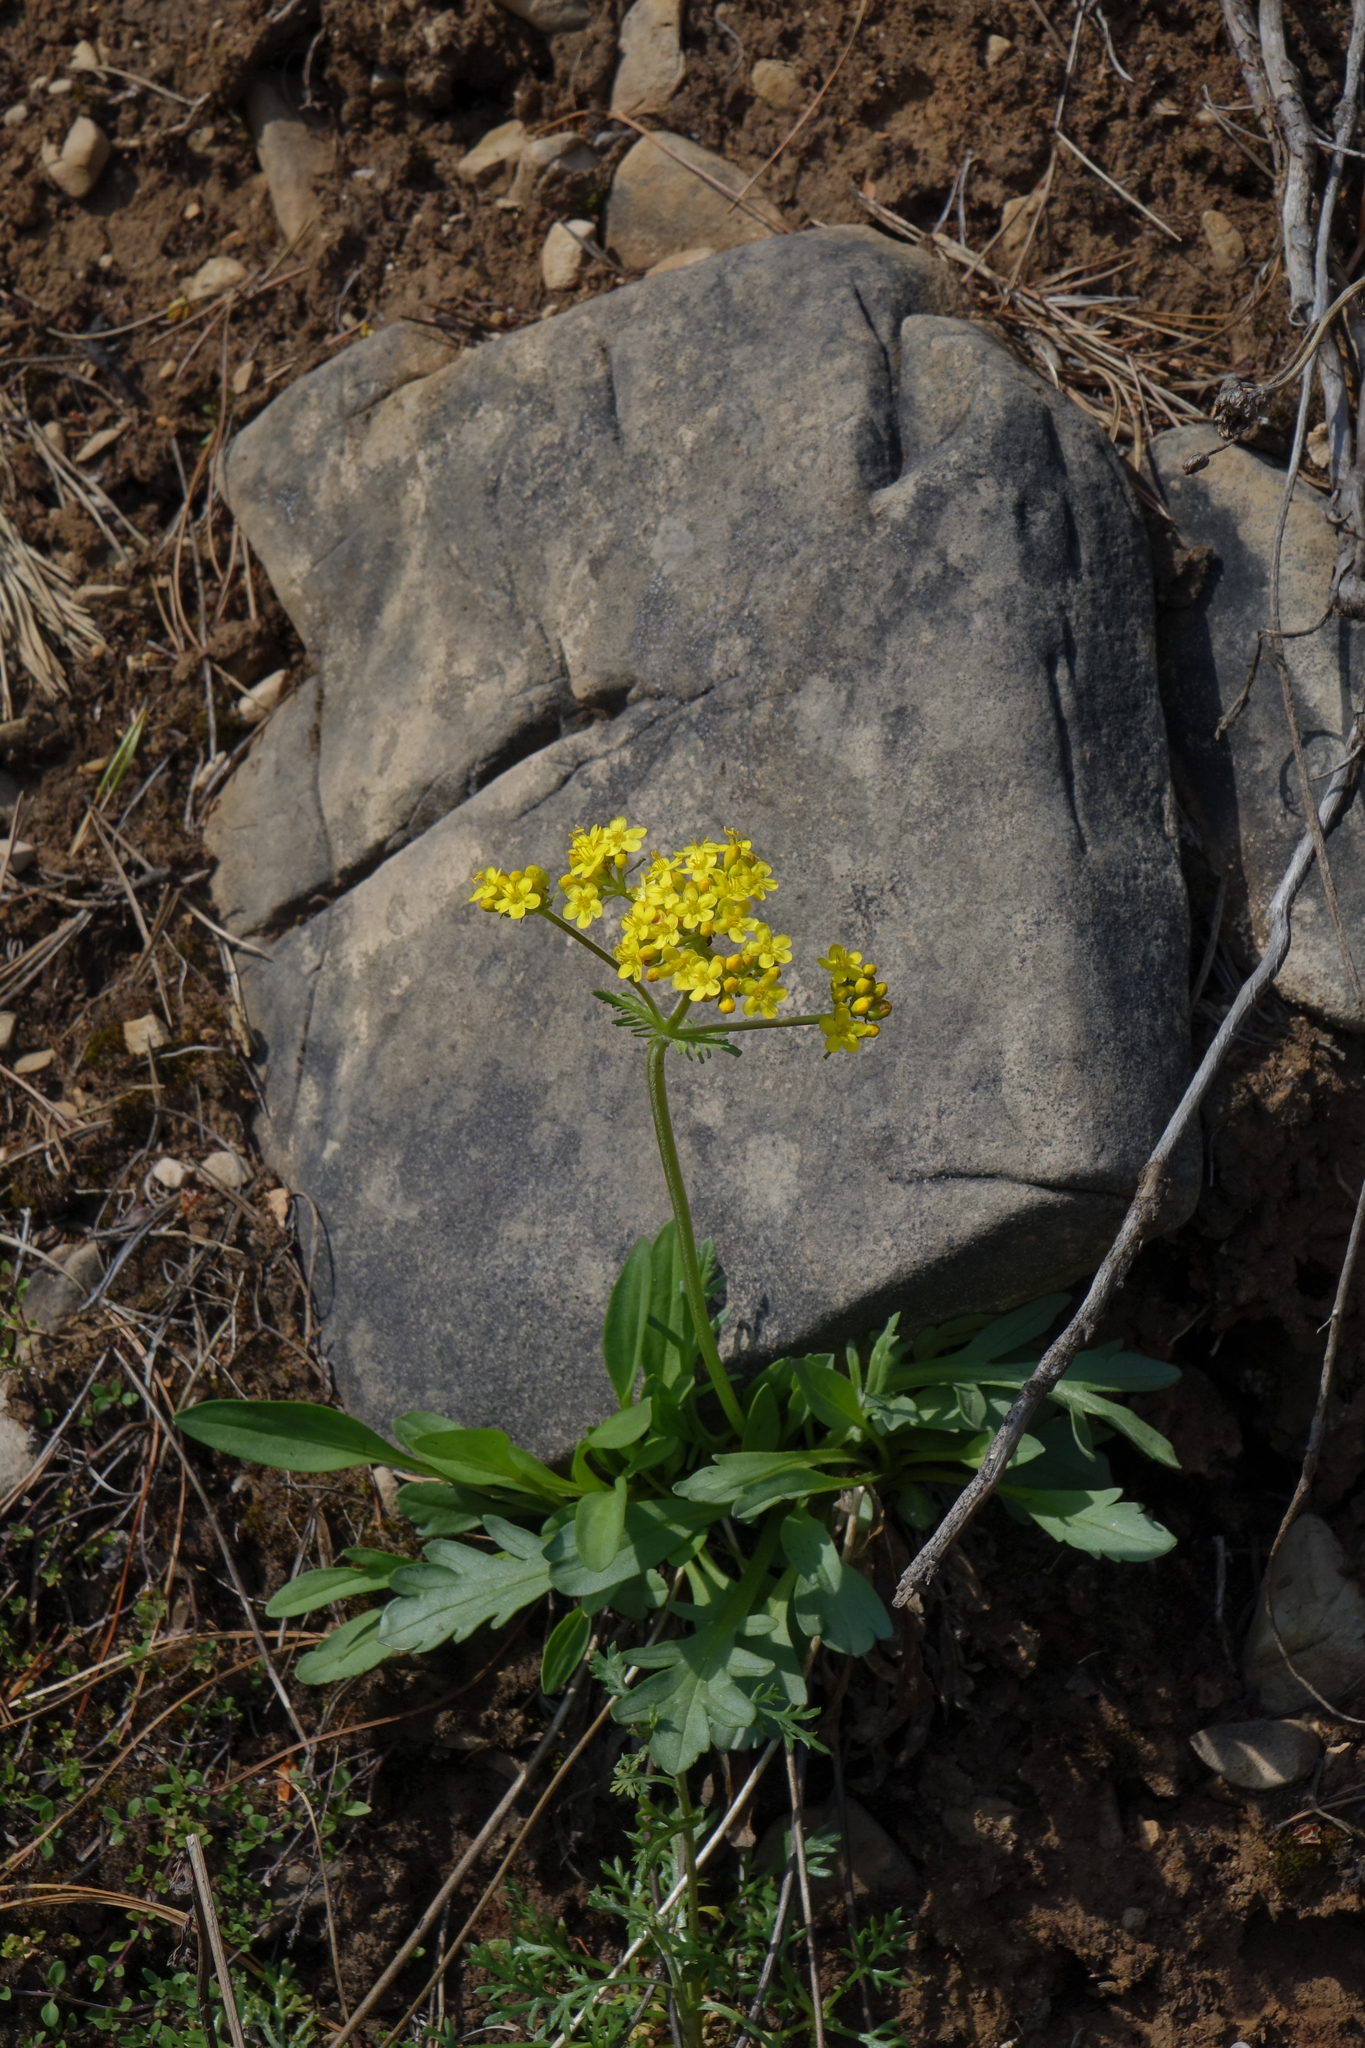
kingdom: Plantae
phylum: Tracheophyta
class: Magnoliopsida
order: Dipsacales
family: Caprifoliaceae
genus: Patrinia
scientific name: Patrinia sibirica
